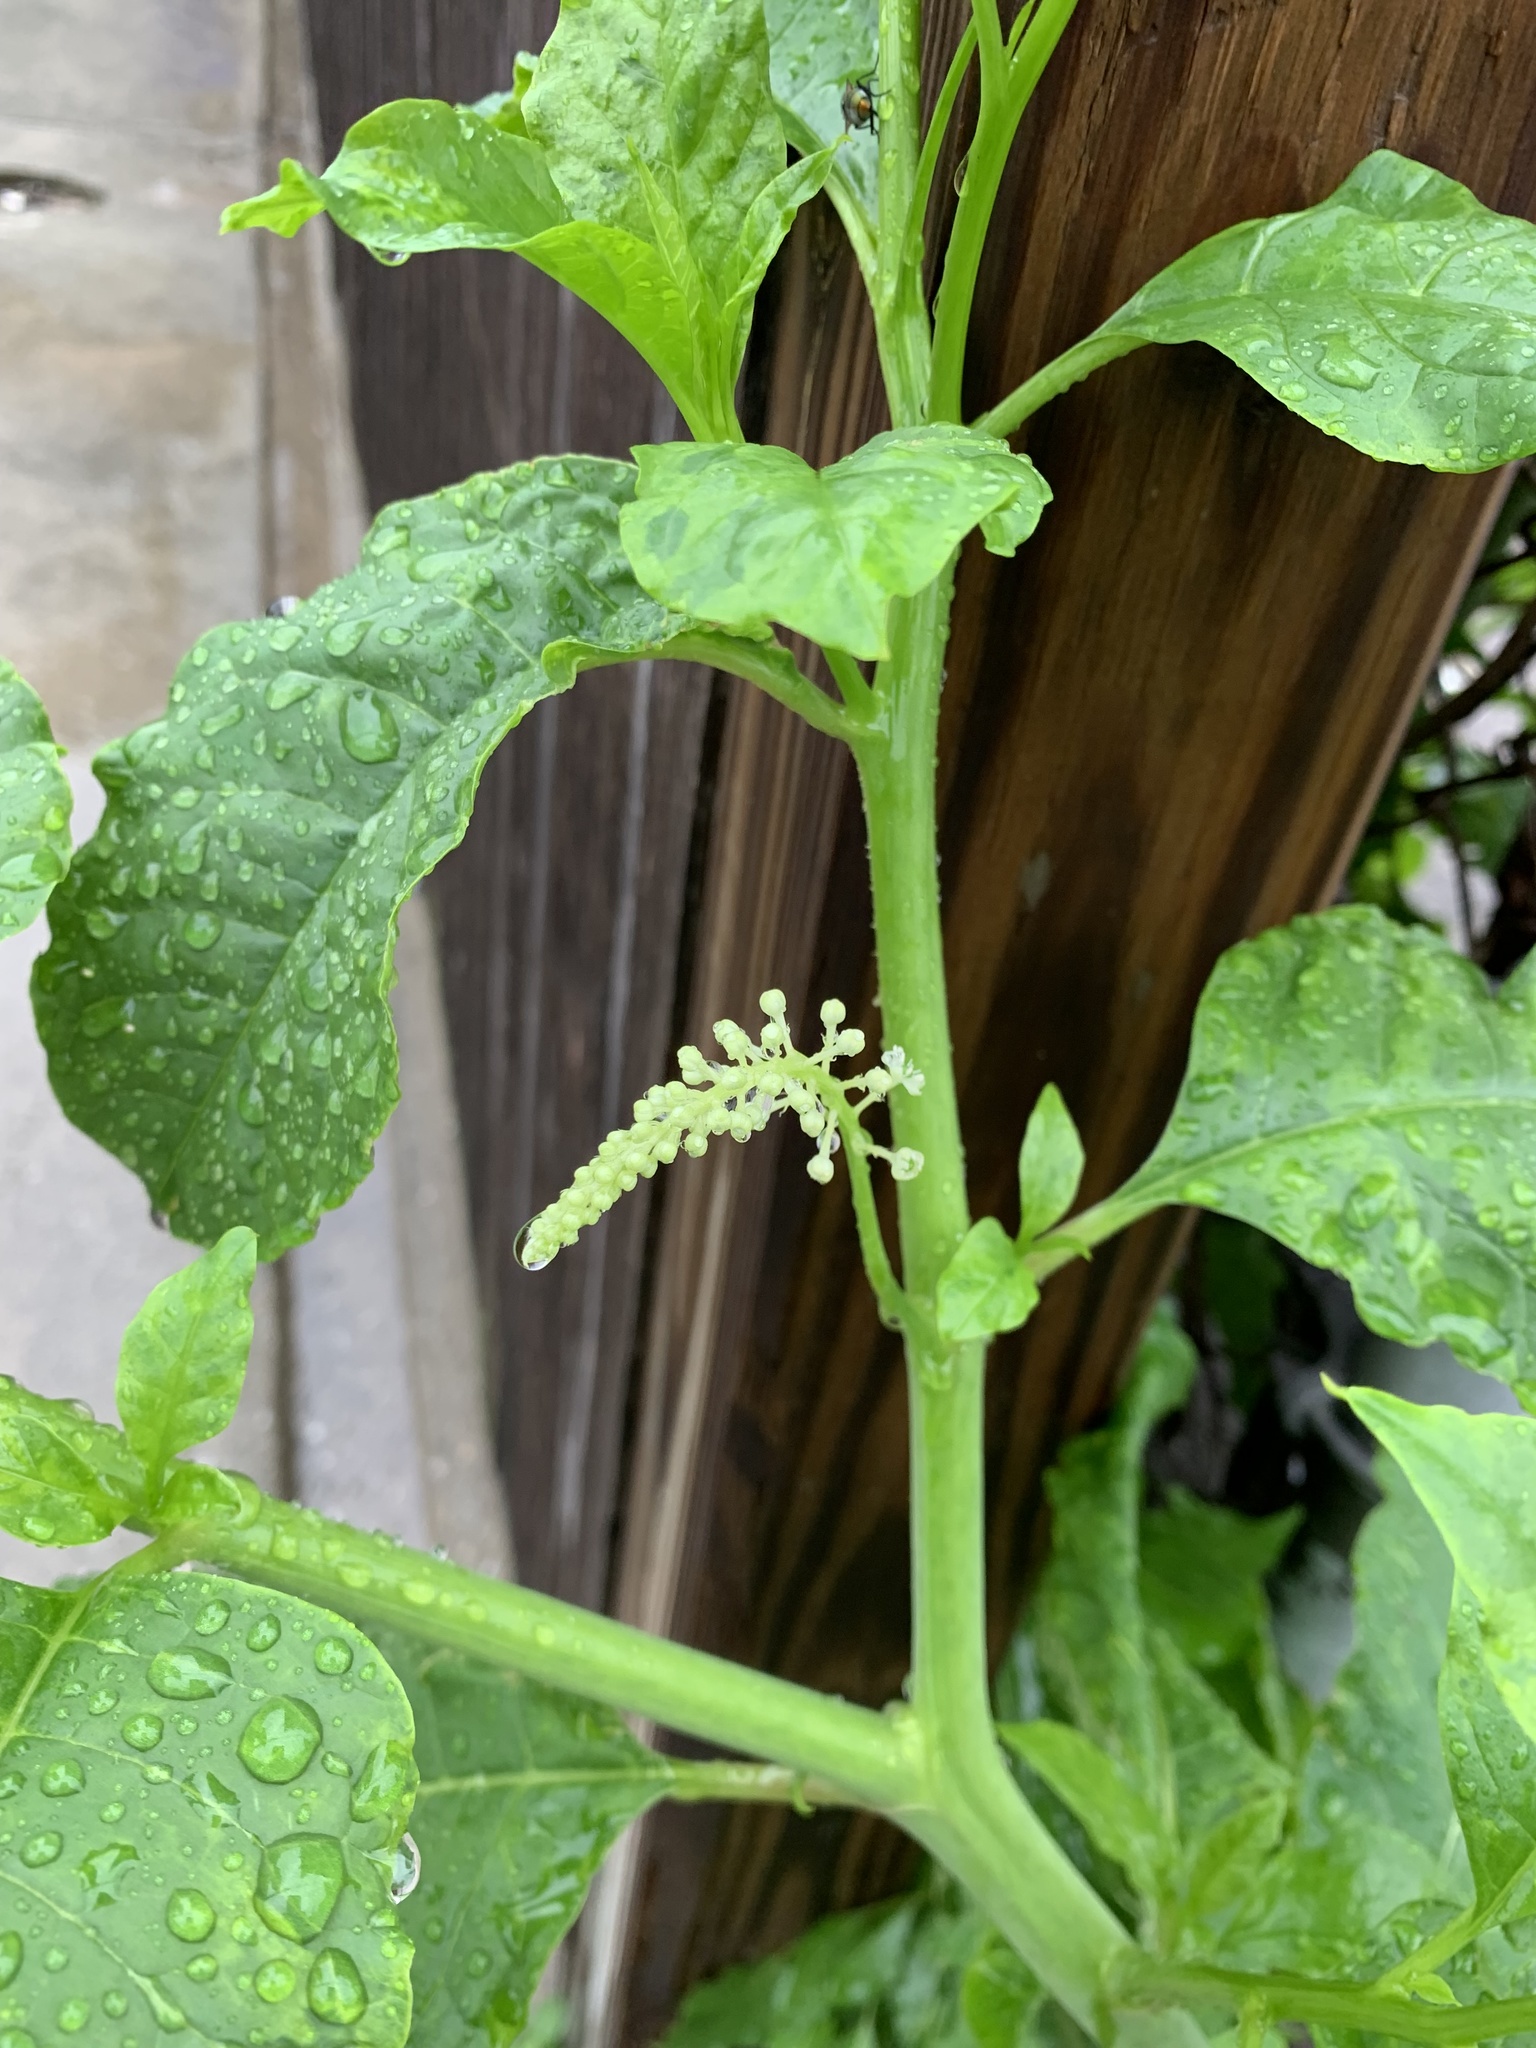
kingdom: Plantae
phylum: Tracheophyta
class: Magnoliopsida
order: Caryophyllales
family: Phytolaccaceae
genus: Phytolacca
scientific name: Phytolacca americana
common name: American pokeweed
